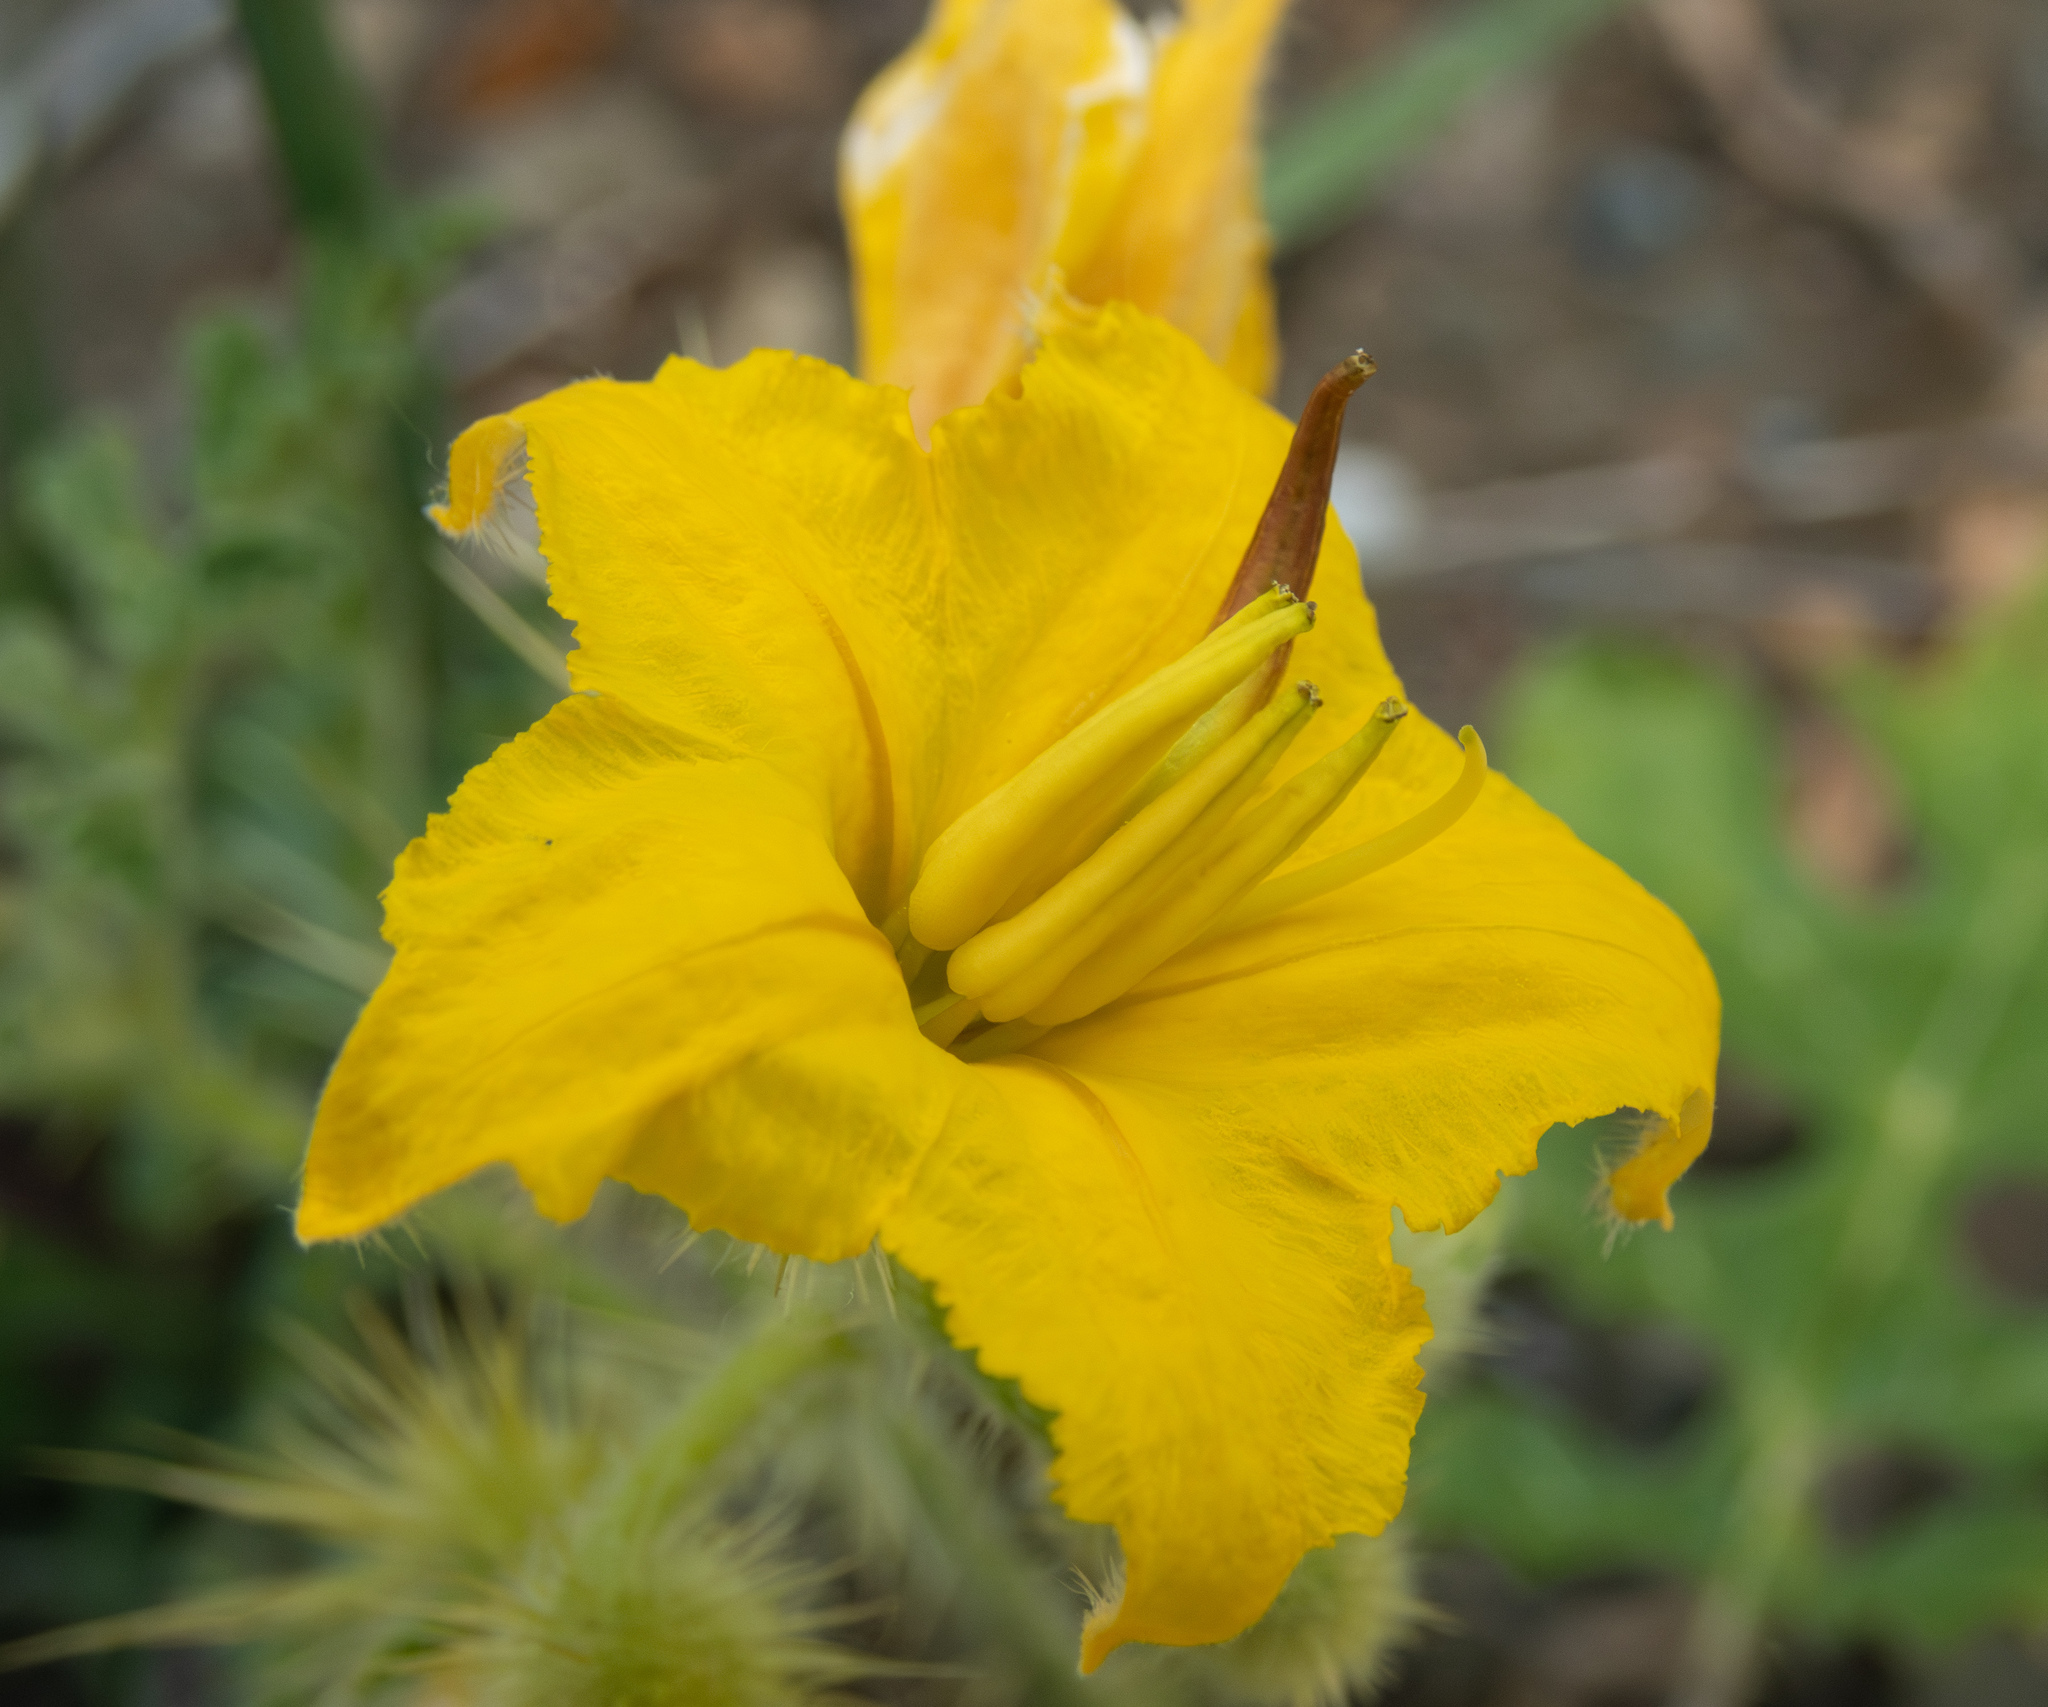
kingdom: Plantae
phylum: Tracheophyta
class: Magnoliopsida
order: Solanales
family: Solanaceae
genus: Solanum
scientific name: Solanum angustifolium
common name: Buffalobur nightshade
